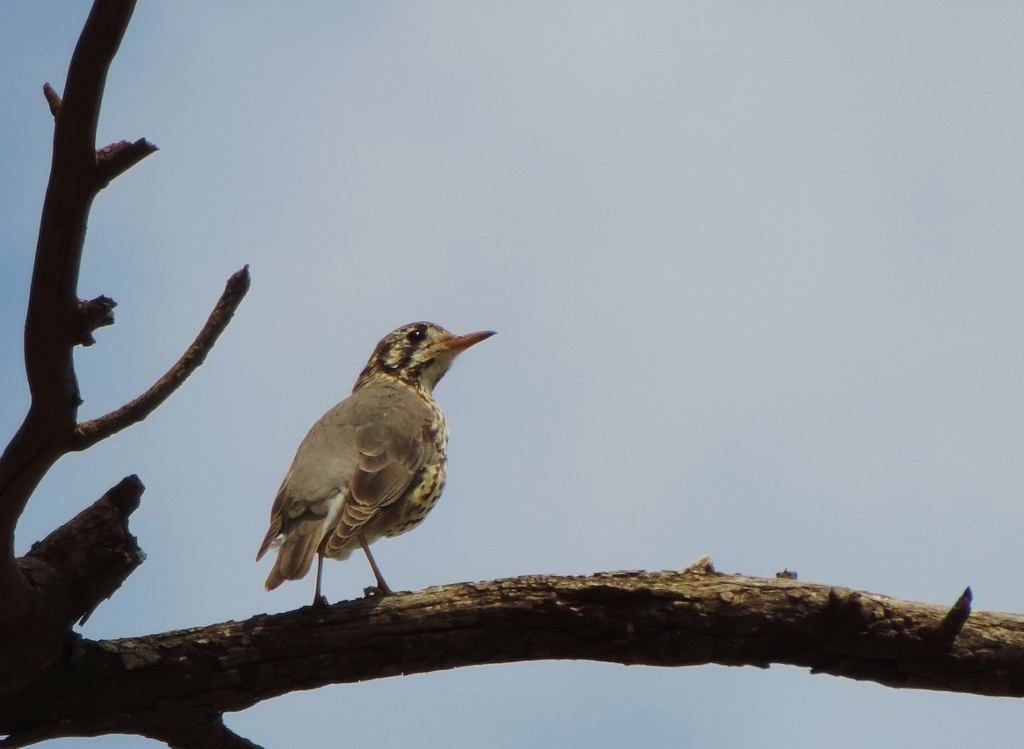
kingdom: Animalia
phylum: Chordata
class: Aves
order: Passeriformes
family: Turdidae
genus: Psophocichla
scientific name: Psophocichla litsitsirupa
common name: Groundscraper thrush
